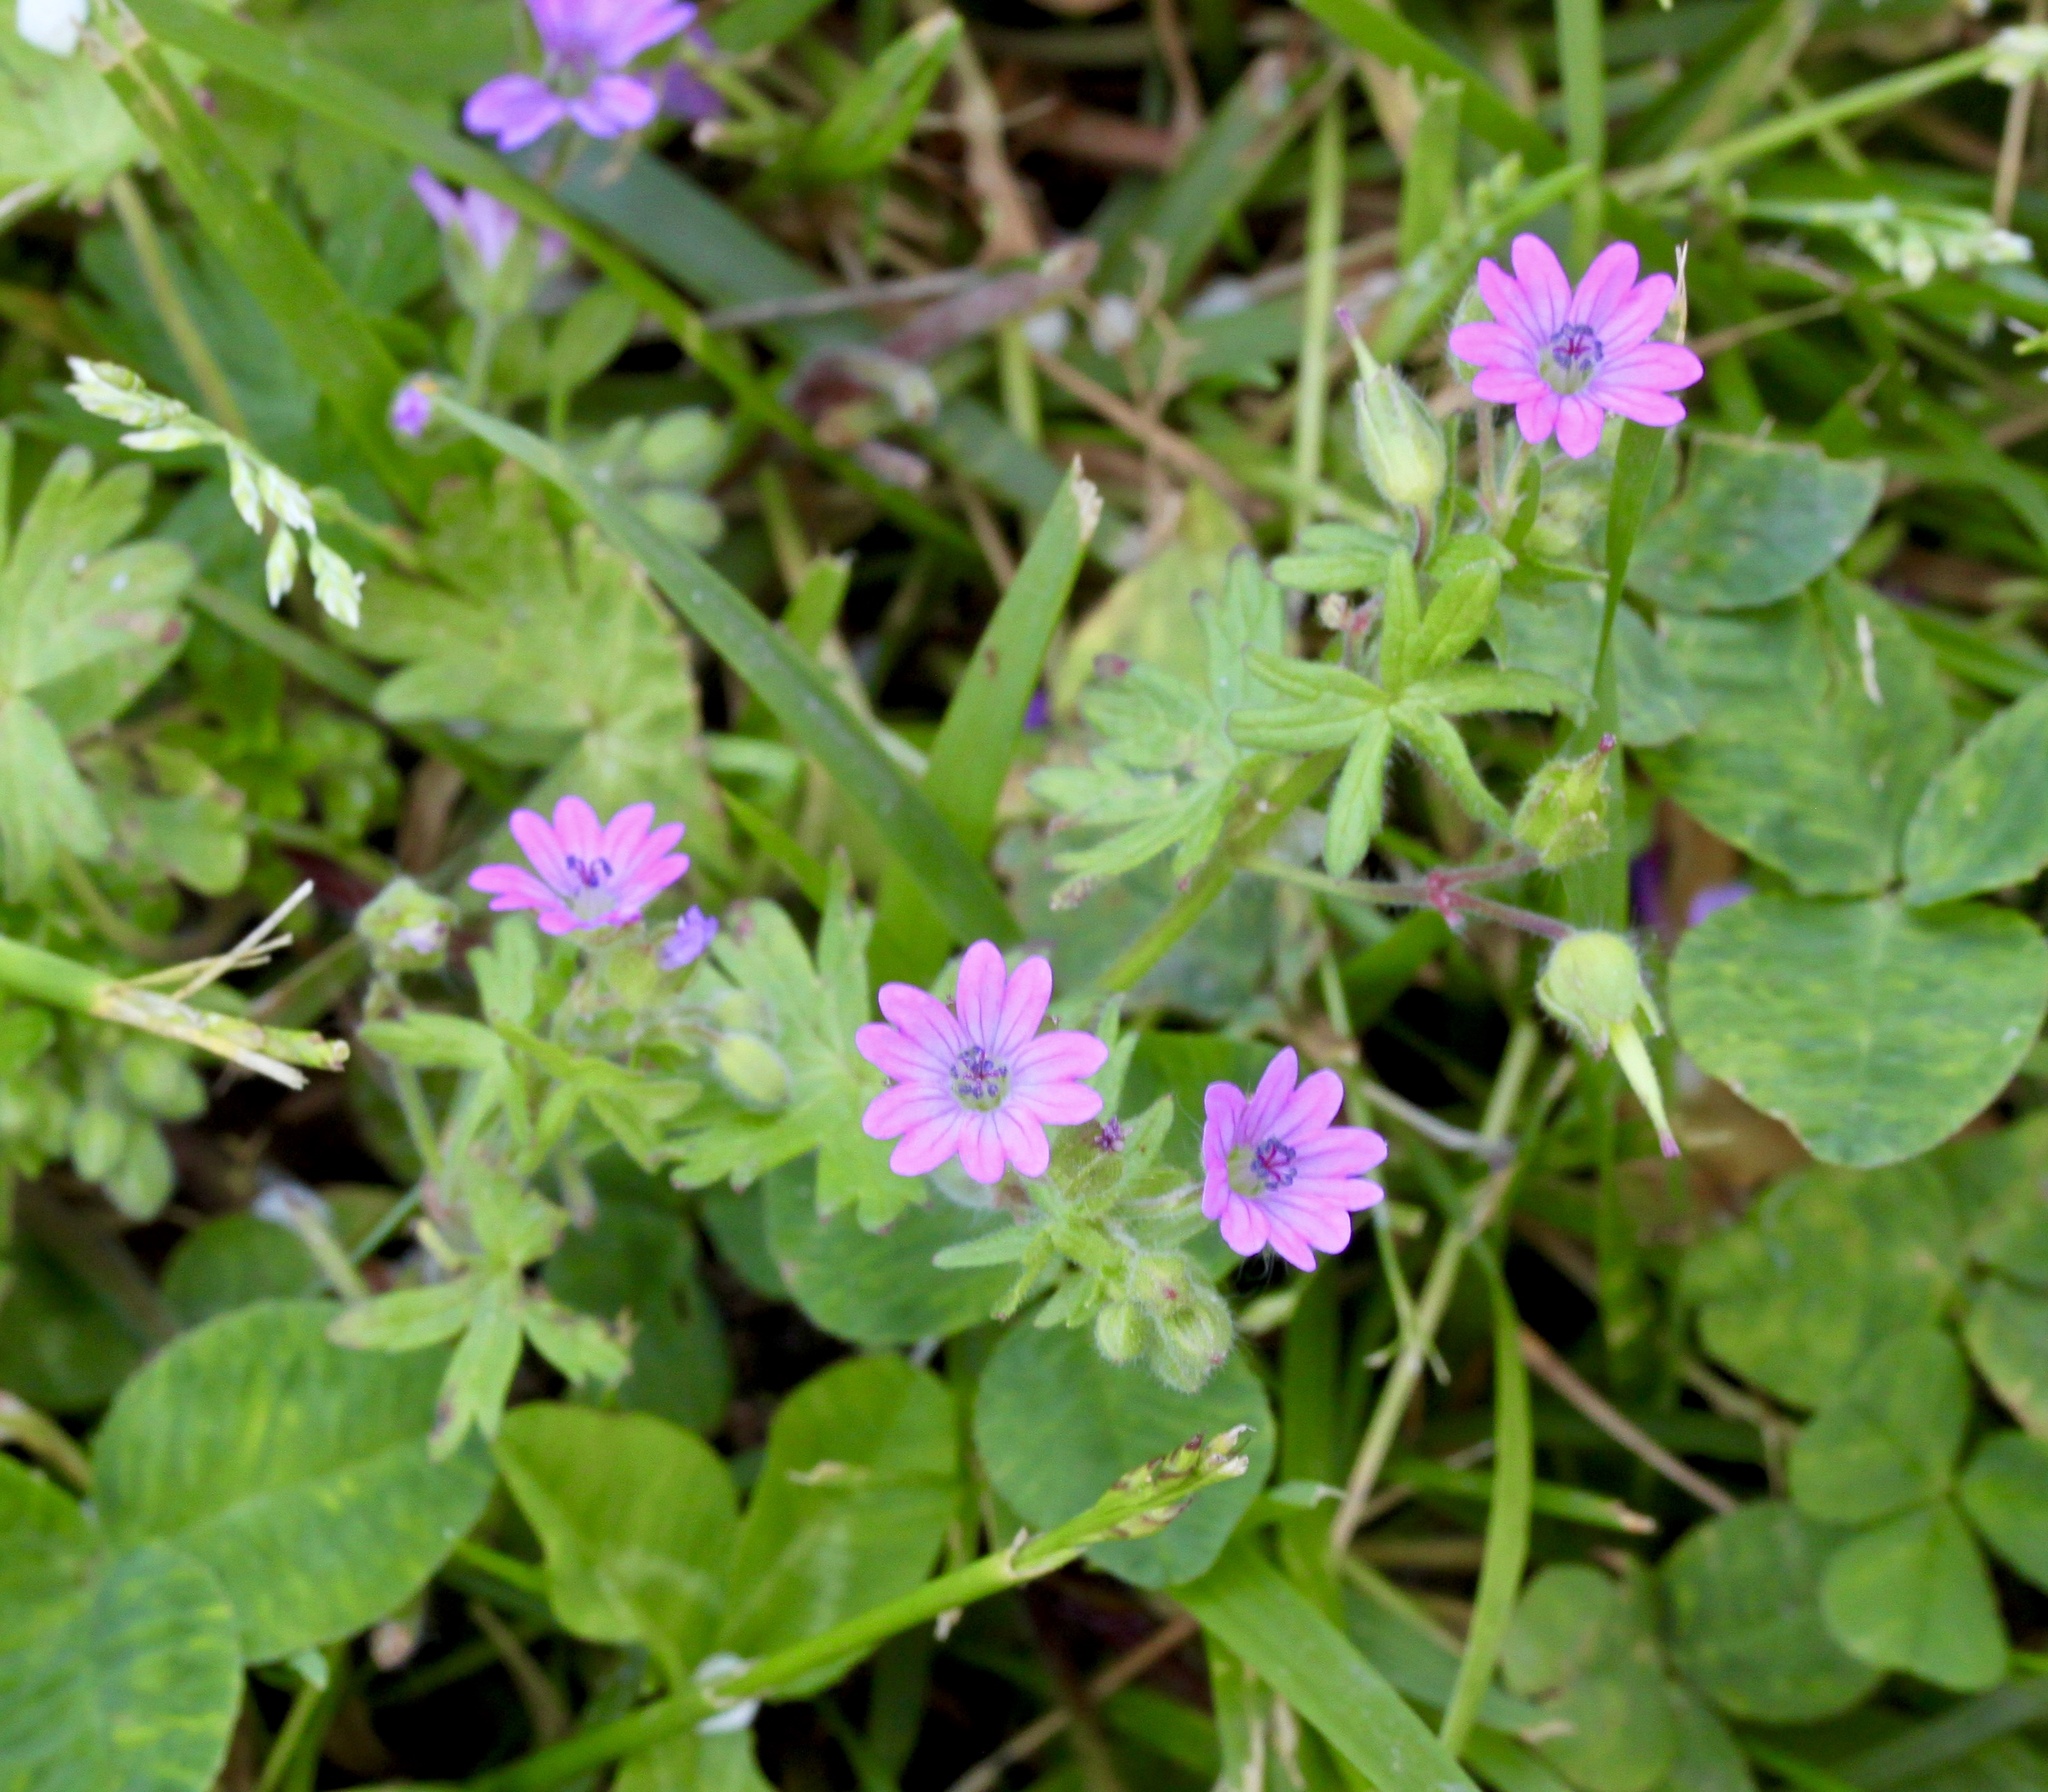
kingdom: Plantae
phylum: Tracheophyta
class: Magnoliopsida
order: Geraniales
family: Geraniaceae
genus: Geranium
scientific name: Geranium molle
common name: Dove's-foot crane's-bill
